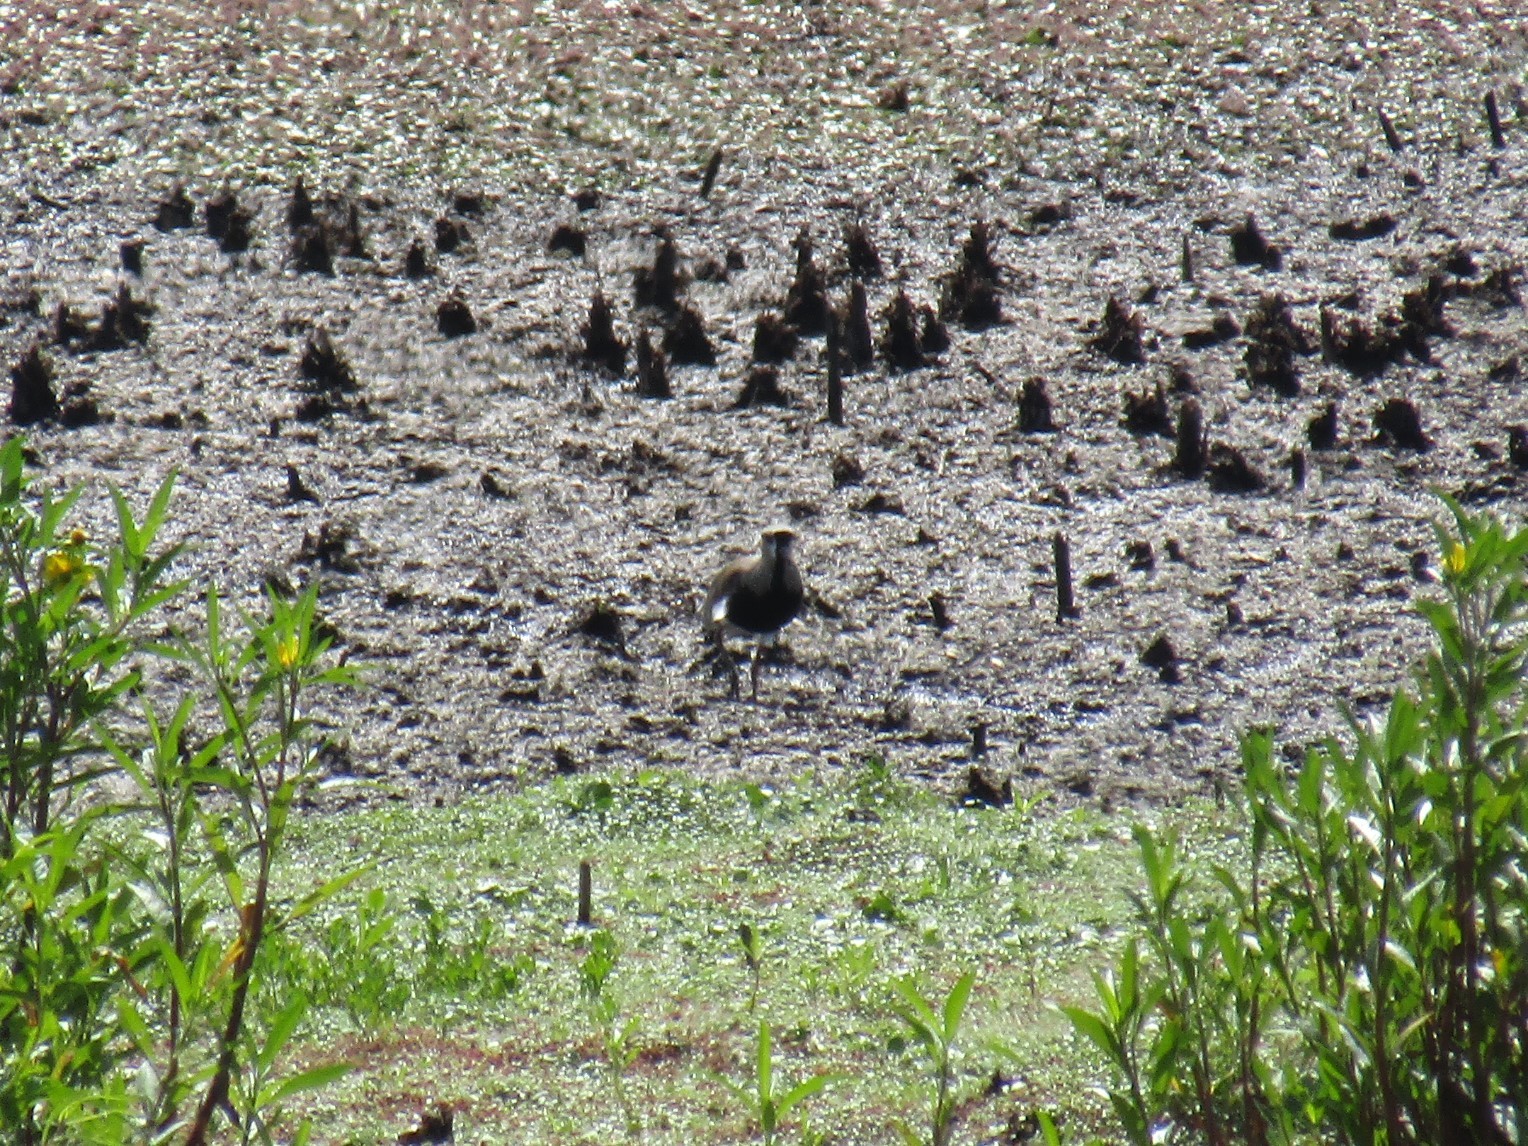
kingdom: Animalia
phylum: Chordata
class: Aves
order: Charadriiformes
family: Charadriidae
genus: Vanellus
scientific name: Vanellus chilensis
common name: Southern lapwing
